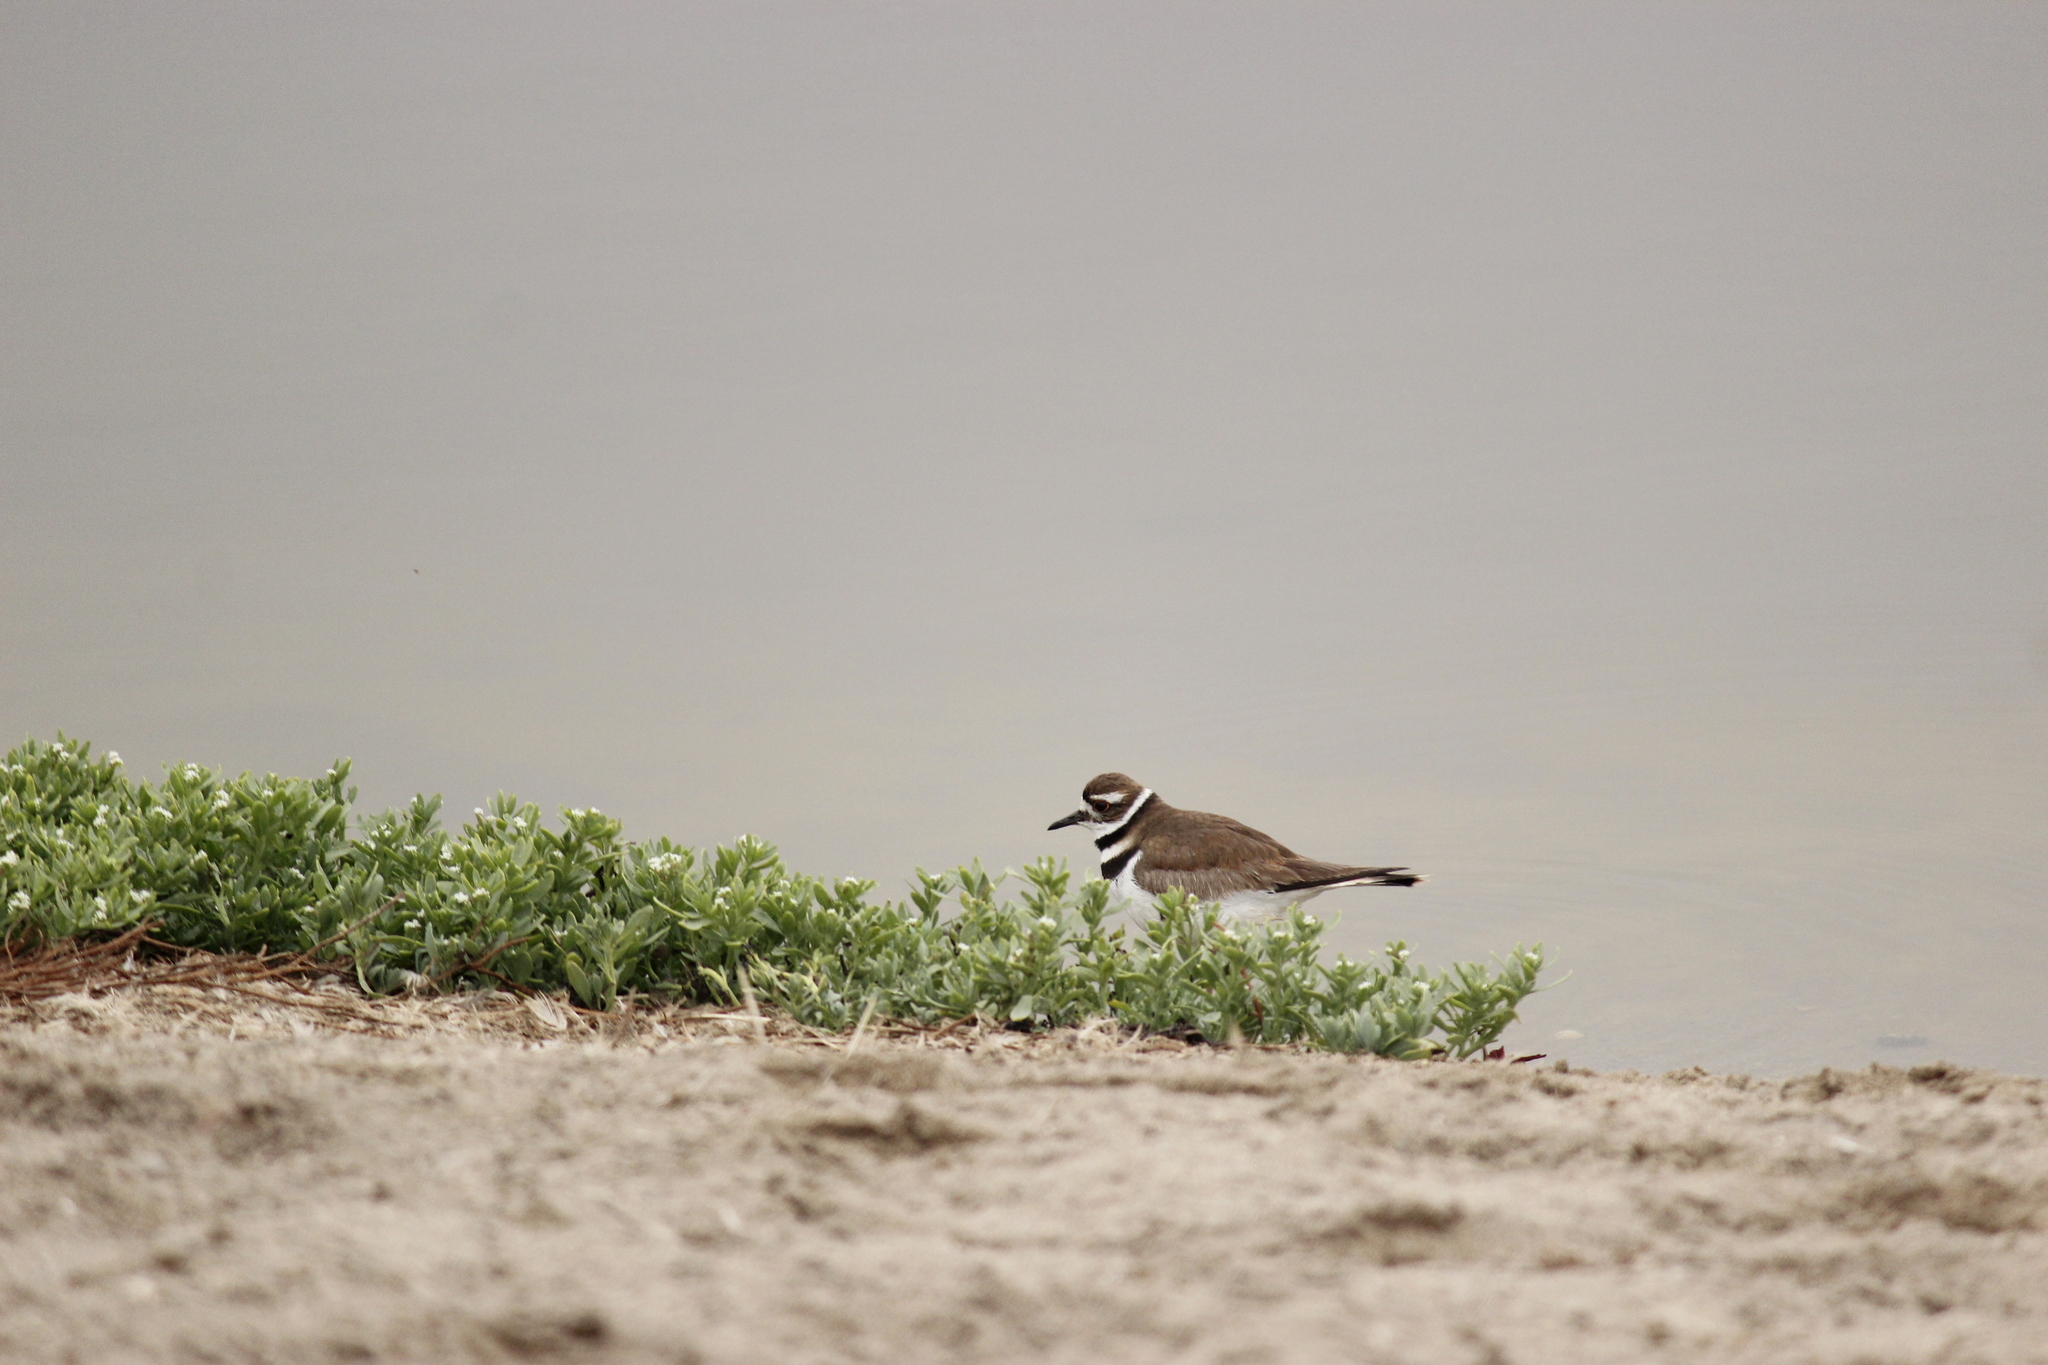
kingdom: Animalia
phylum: Chordata
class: Aves
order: Charadriiformes
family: Charadriidae
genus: Charadrius
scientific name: Charadrius vociferus
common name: Killdeer
